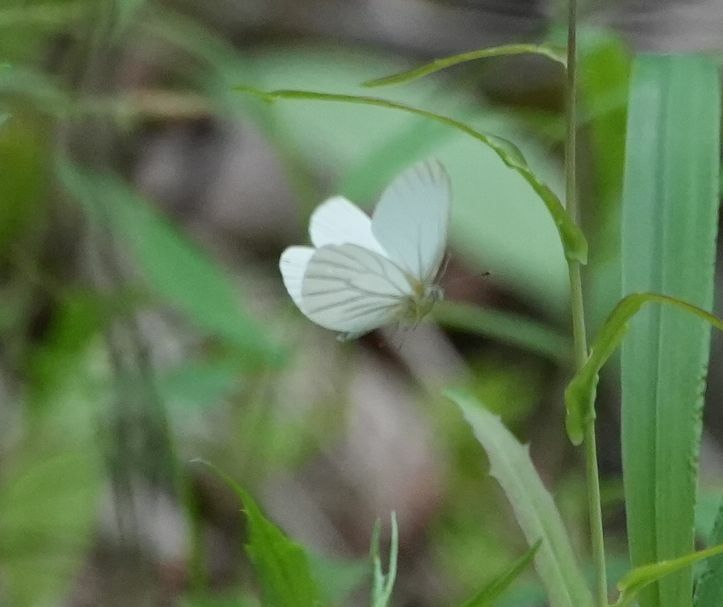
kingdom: Animalia
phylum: Arthropoda
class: Insecta
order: Lepidoptera
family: Pieridae
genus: Pieris
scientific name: Pieris oleracea
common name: Mustard white
